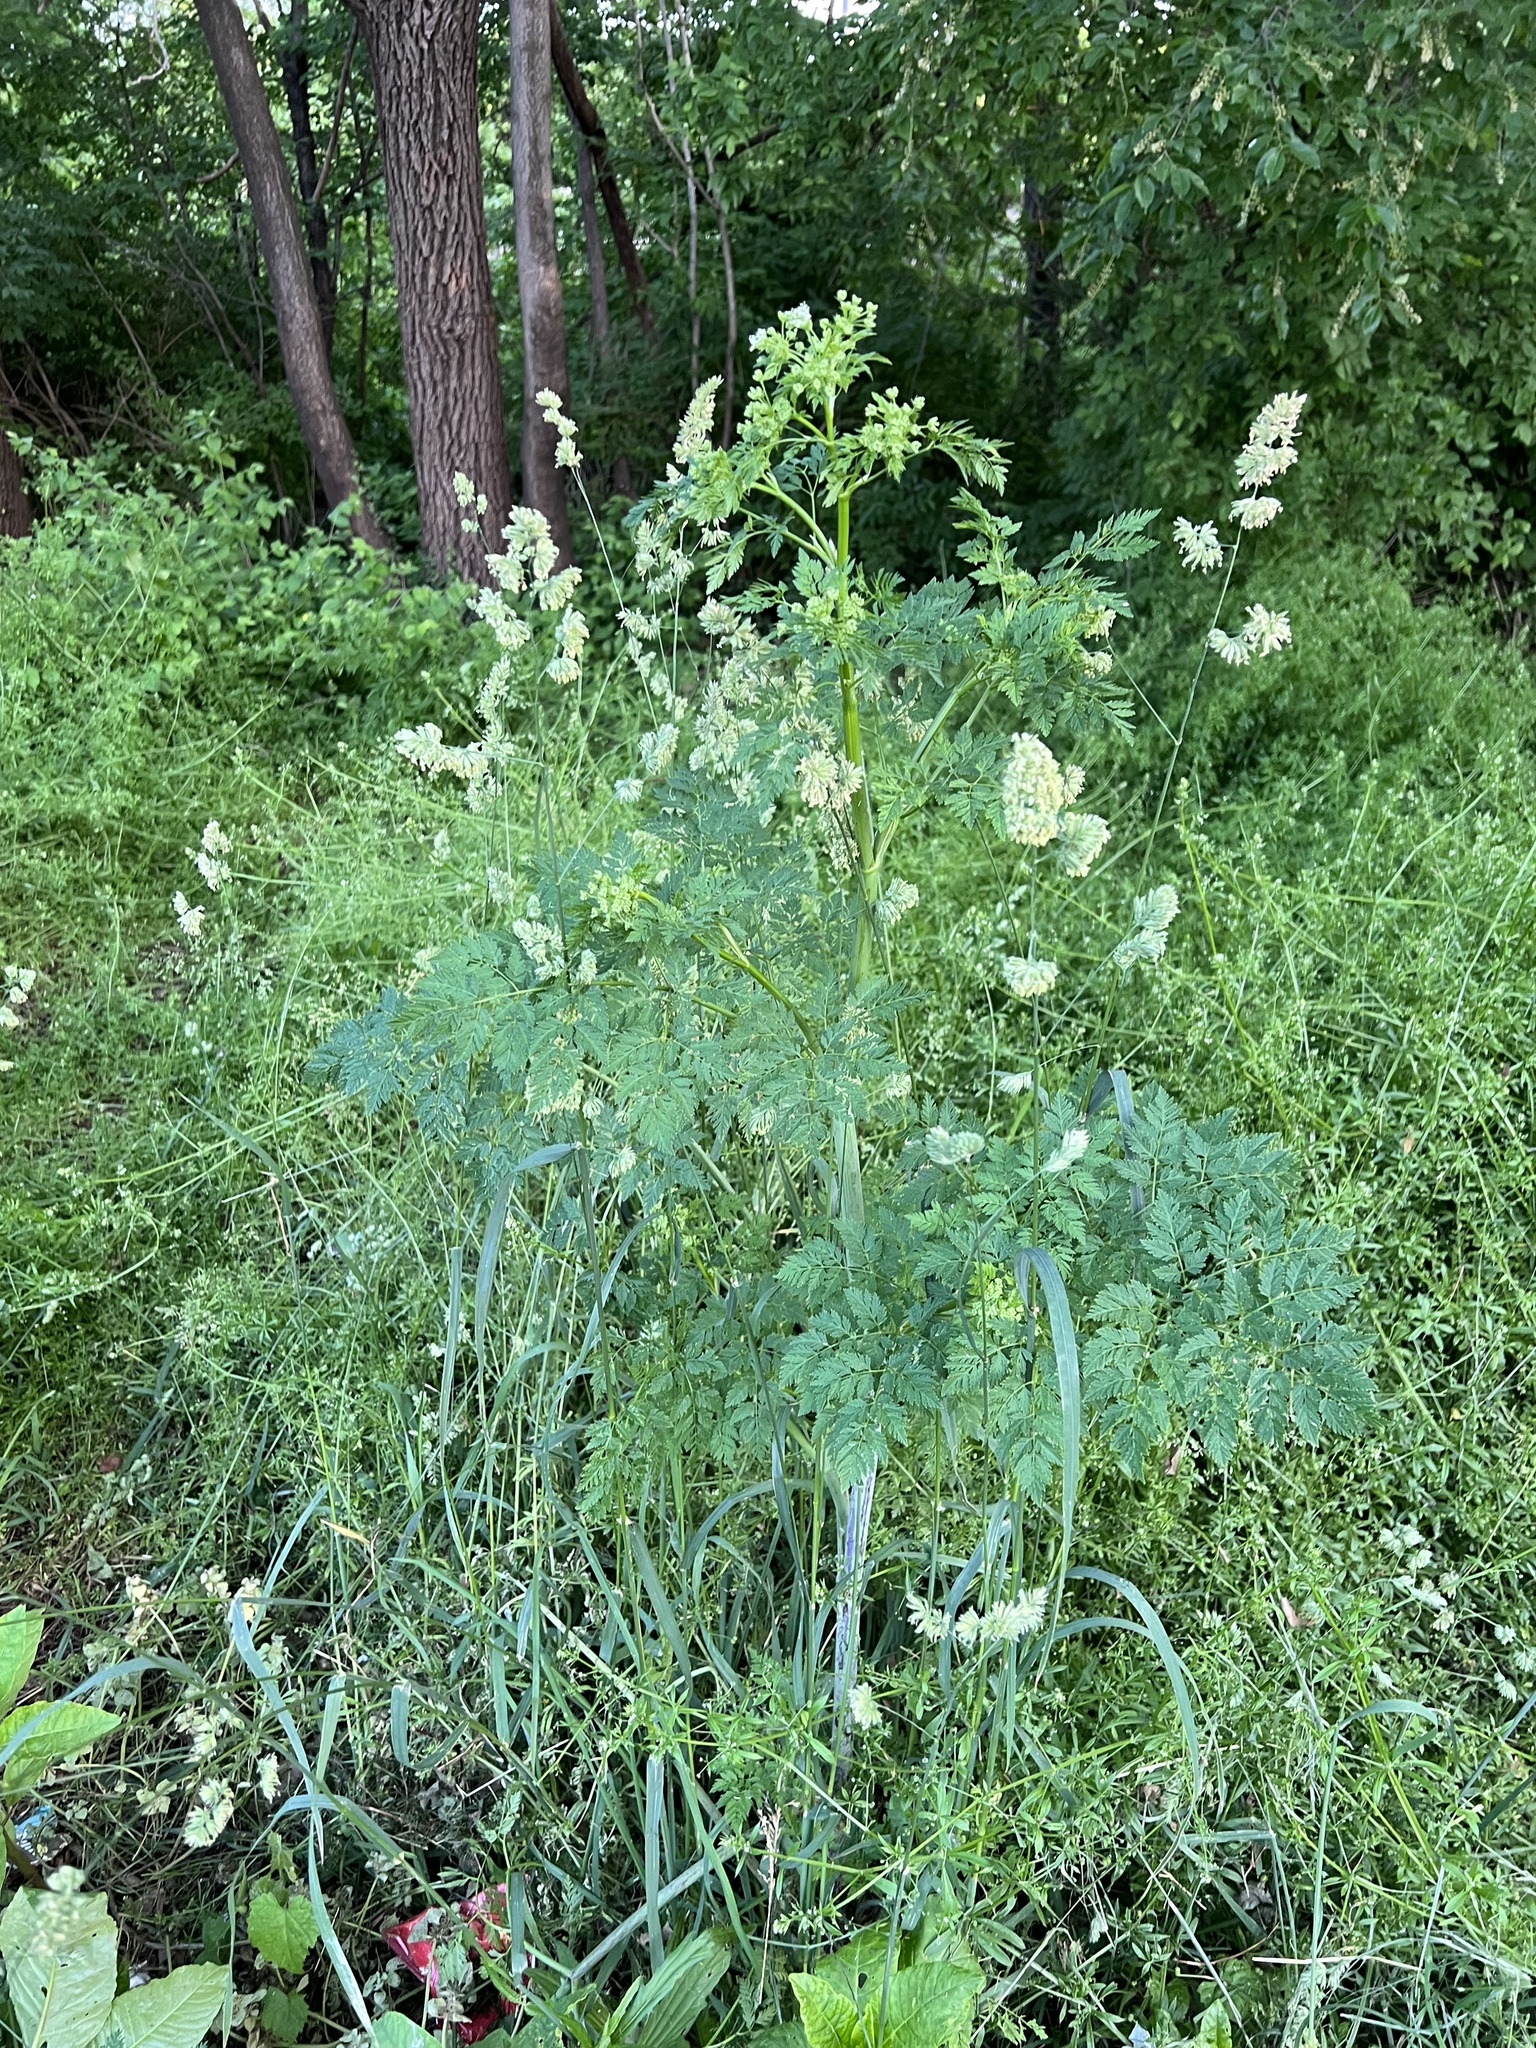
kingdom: Plantae
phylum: Tracheophyta
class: Magnoliopsida
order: Apiales
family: Apiaceae
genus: Conium
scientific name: Conium maculatum
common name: Hemlock
